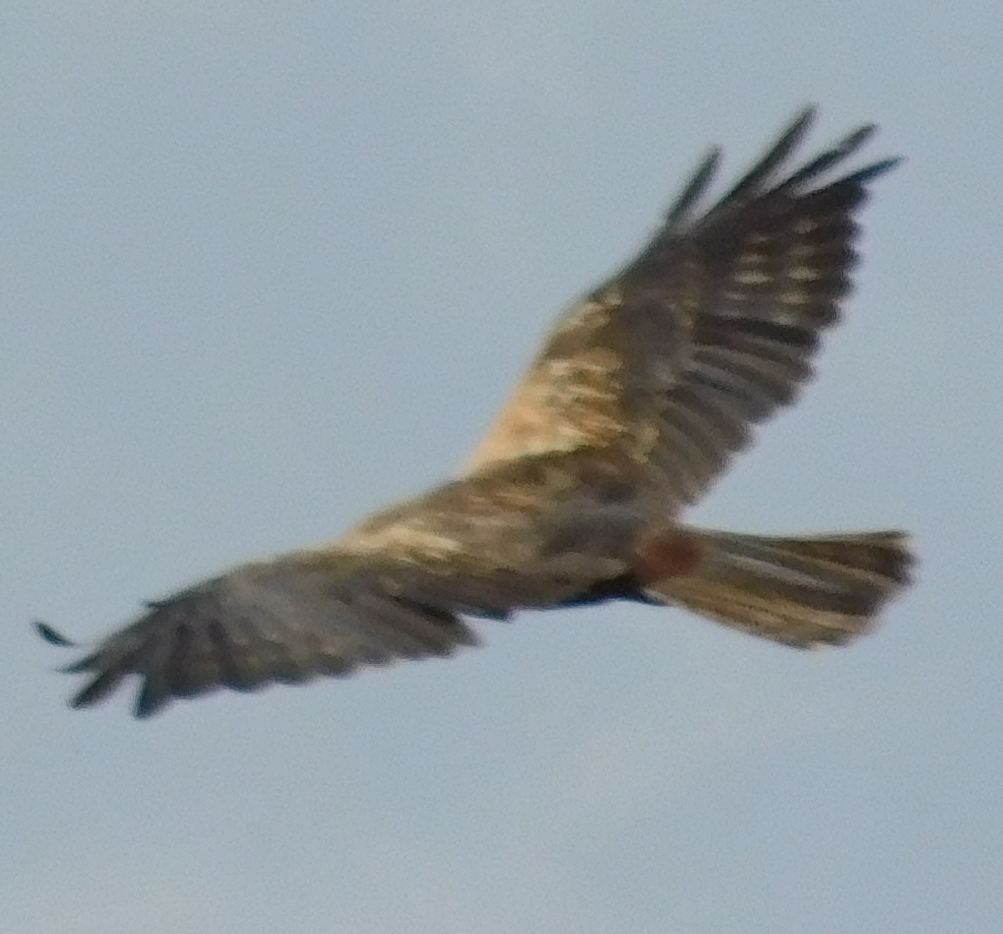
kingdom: Animalia
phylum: Chordata
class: Aves
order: Accipitriformes
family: Accipitridae
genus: Circus
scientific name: Circus aeruginosus
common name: Western marsh harrier
